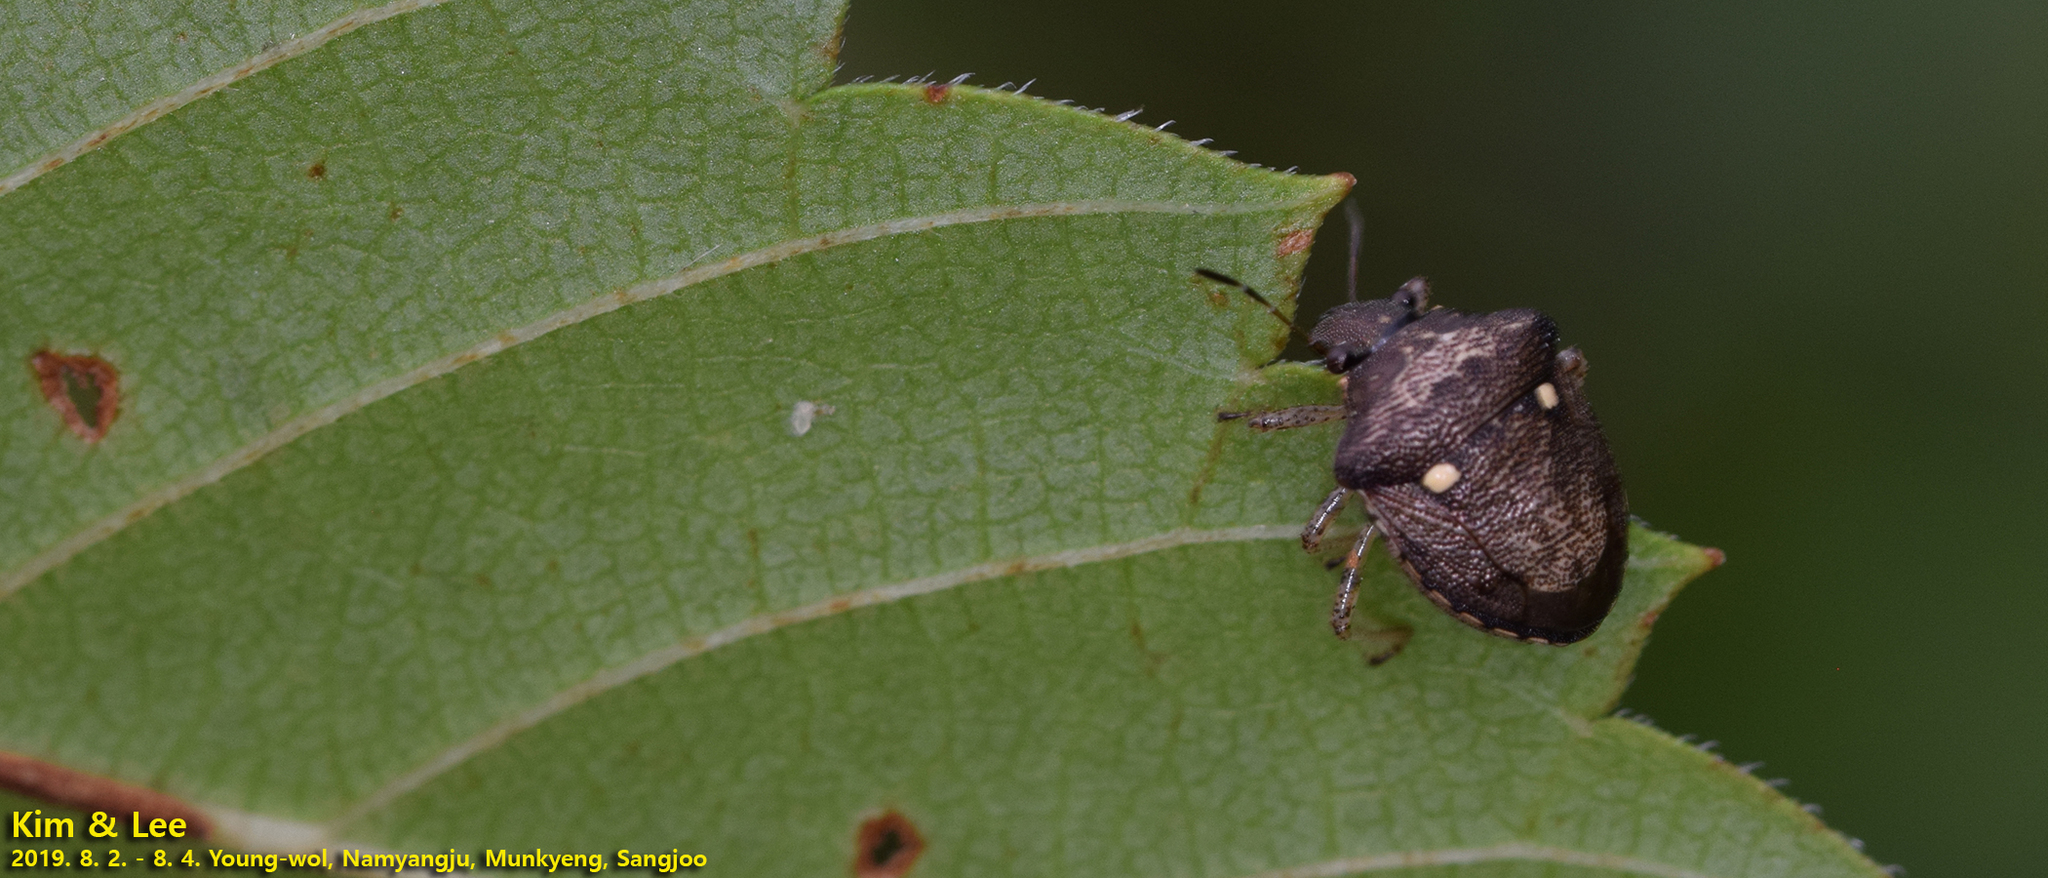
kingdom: Animalia
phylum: Arthropoda
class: Insecta
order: Hemiptera
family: Pentatomidae
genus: Eysarcoris
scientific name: Eysarcoris guttigerus
